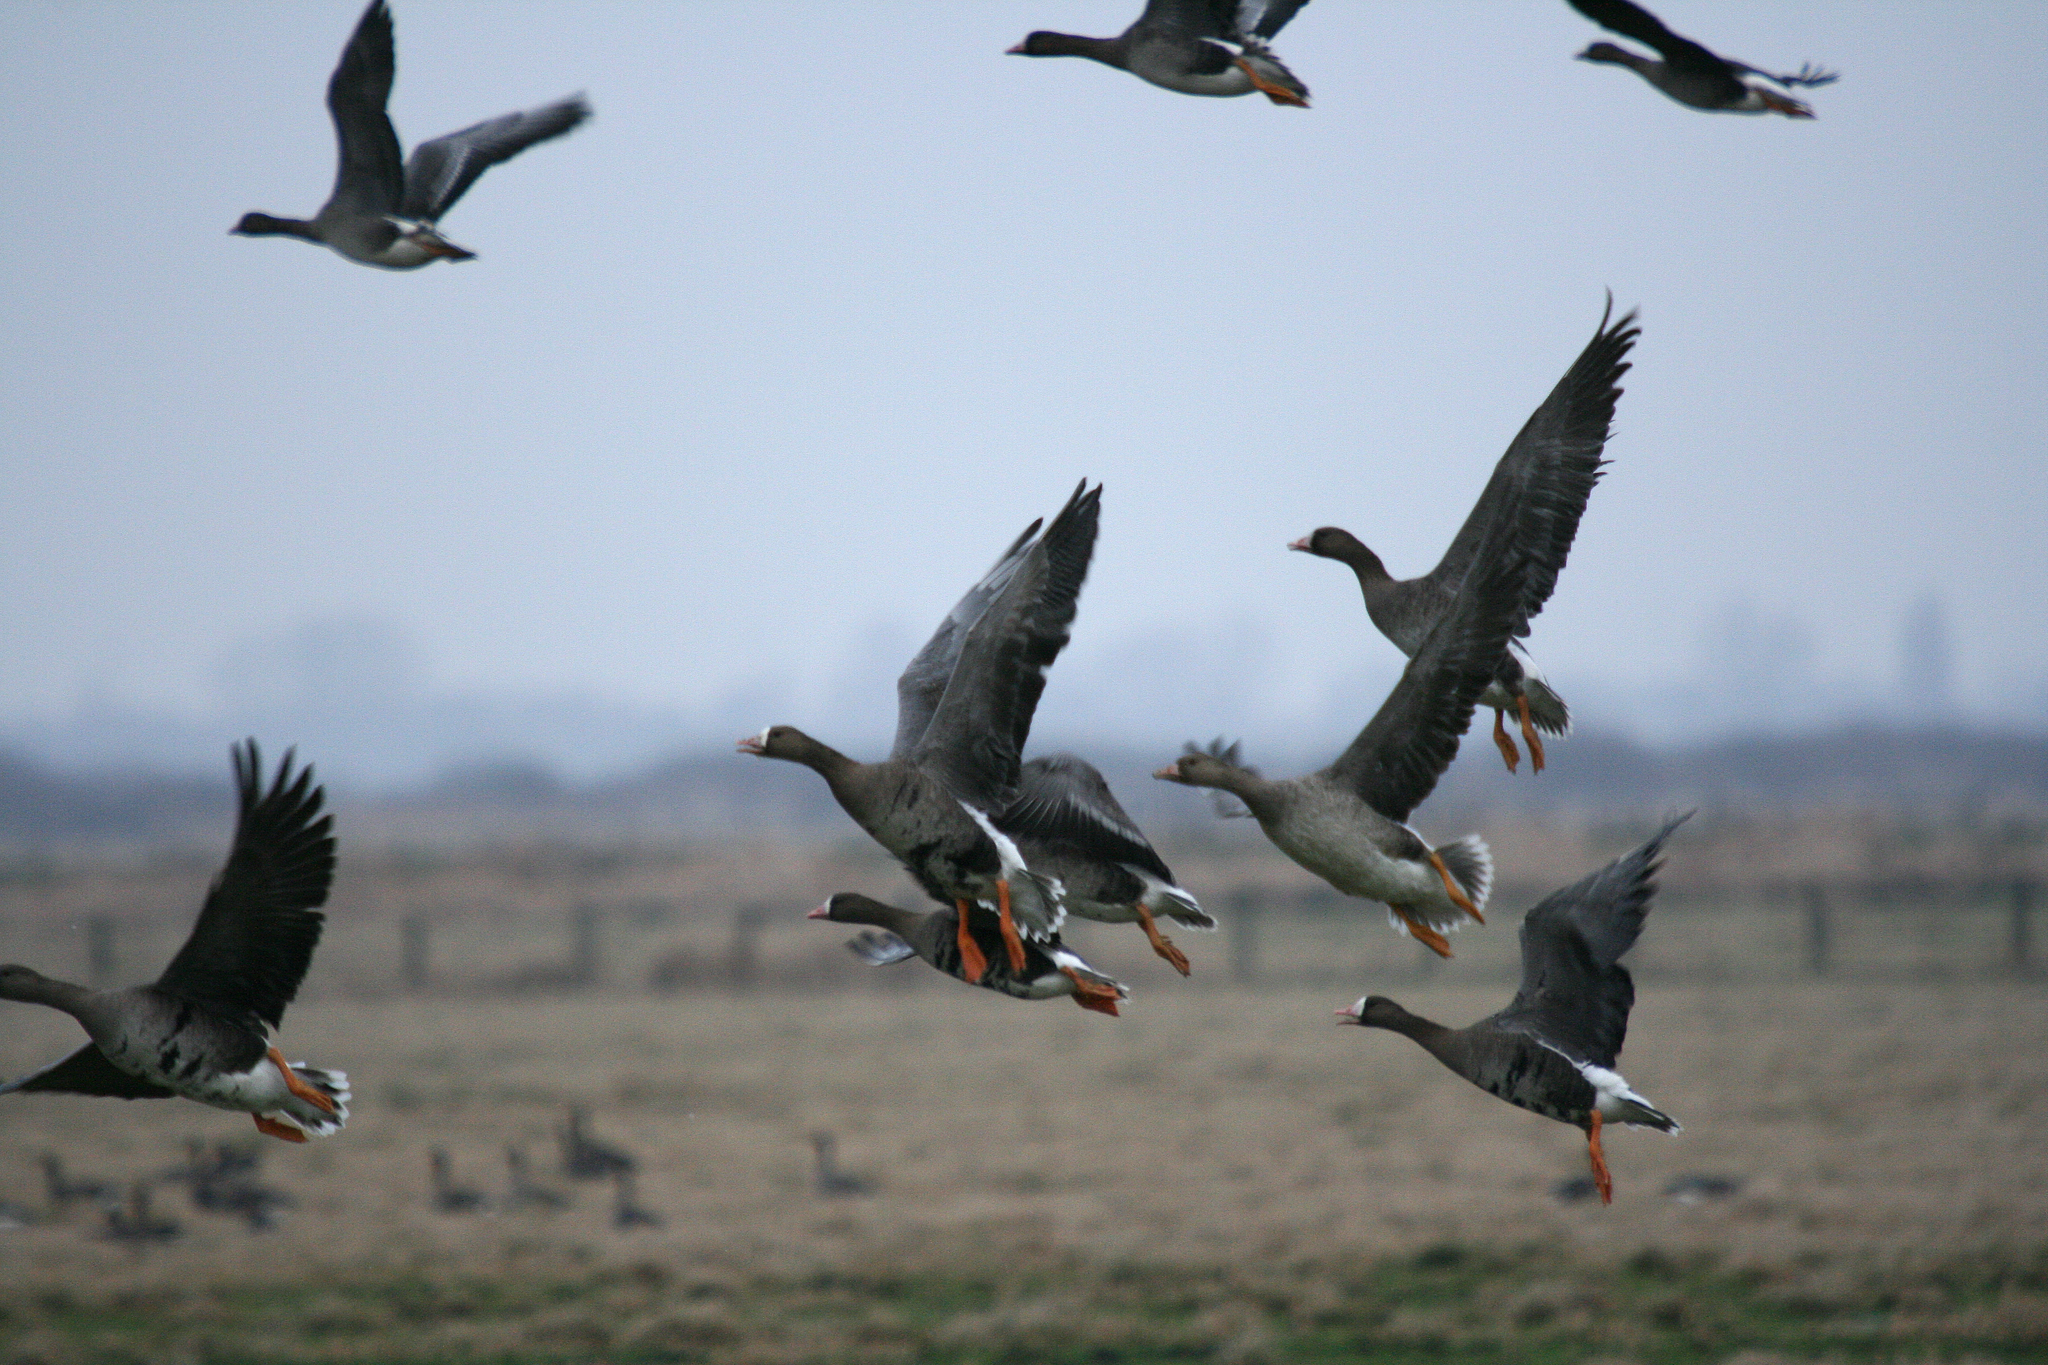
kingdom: Animalia
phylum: Chordata
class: Aves
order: Anseriformes
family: Anatidae
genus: Anser
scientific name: Anser albifrons
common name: Greater white-fronted goose
